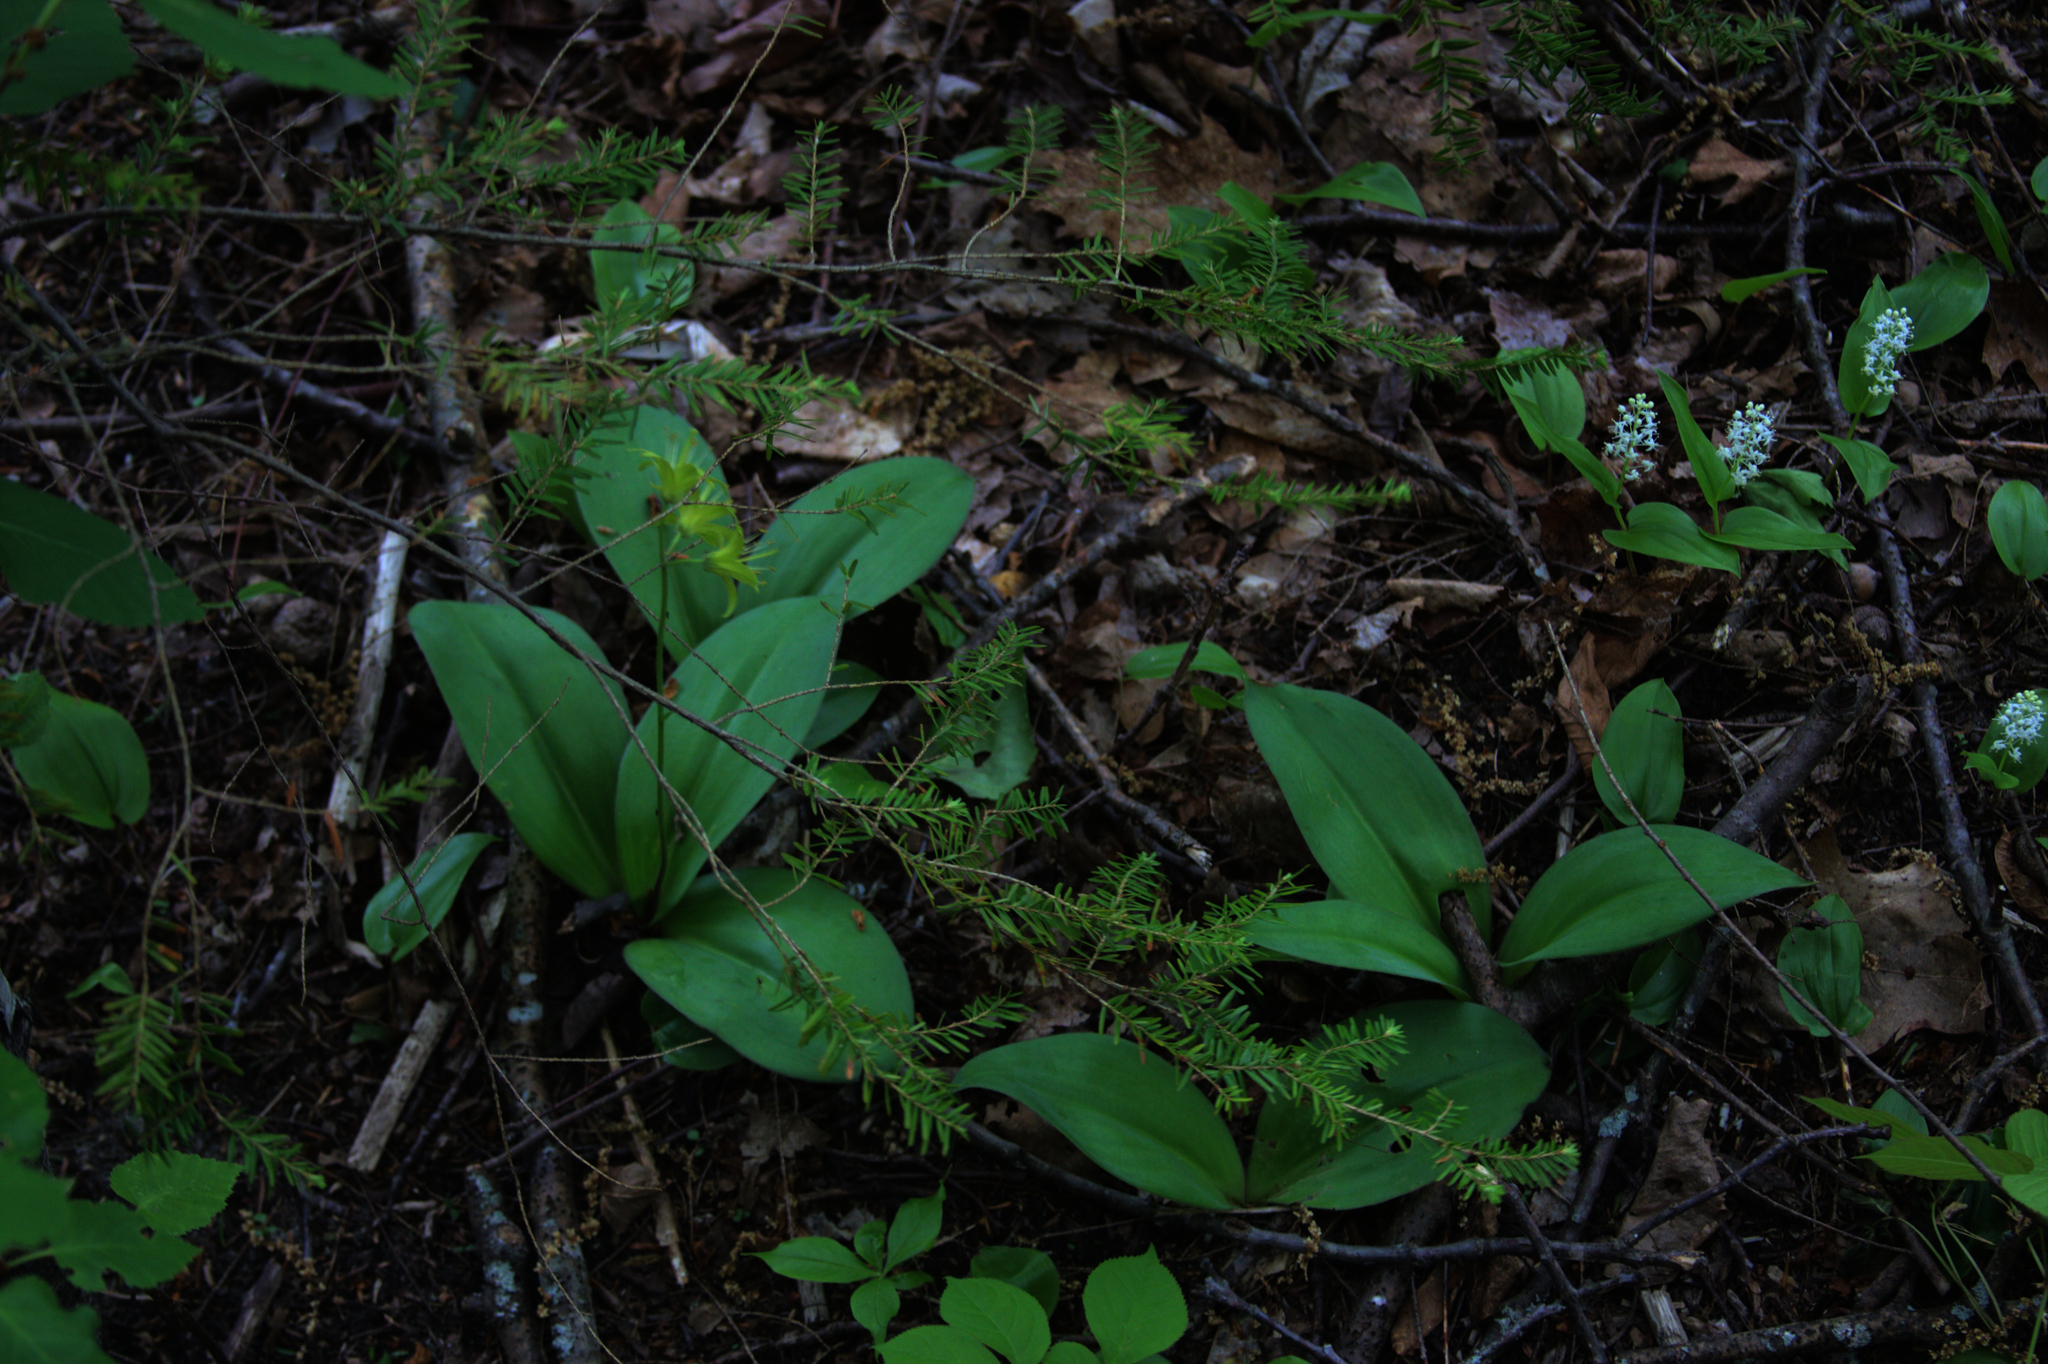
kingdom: Plantae
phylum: Tracheophyta
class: Pinopsida
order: Pinales
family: Pinaceae
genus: Tsuga
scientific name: Tsuga canadensis
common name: Eastern hemlock
